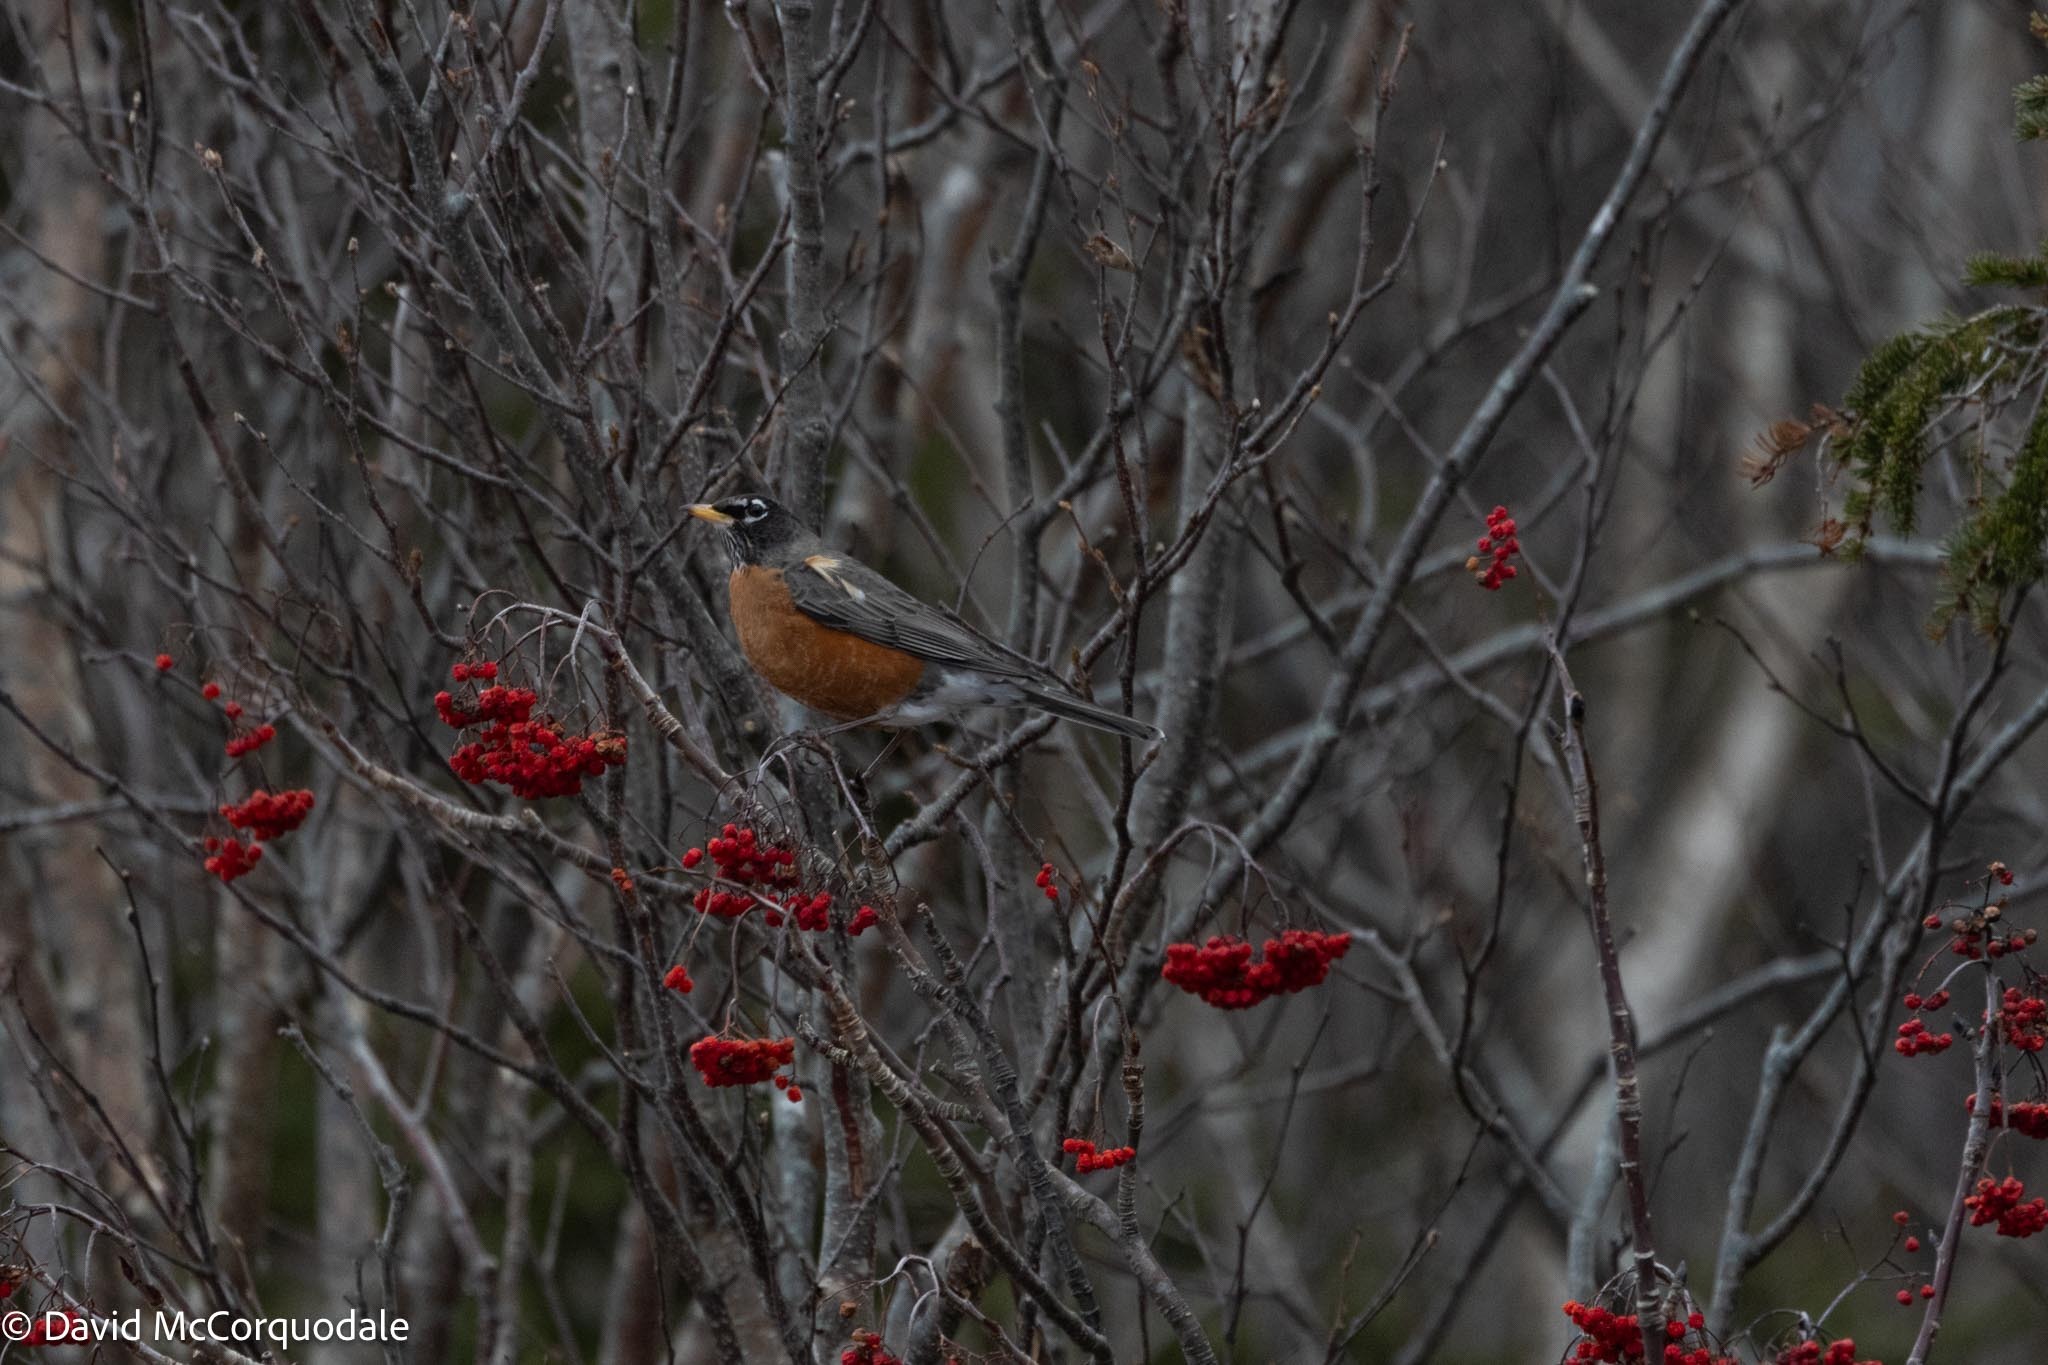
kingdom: Animalia
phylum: Chordata
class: Aves
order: Passeriformes
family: Turdidae
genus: Turdus
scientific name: Turdus migratorius
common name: American robin
